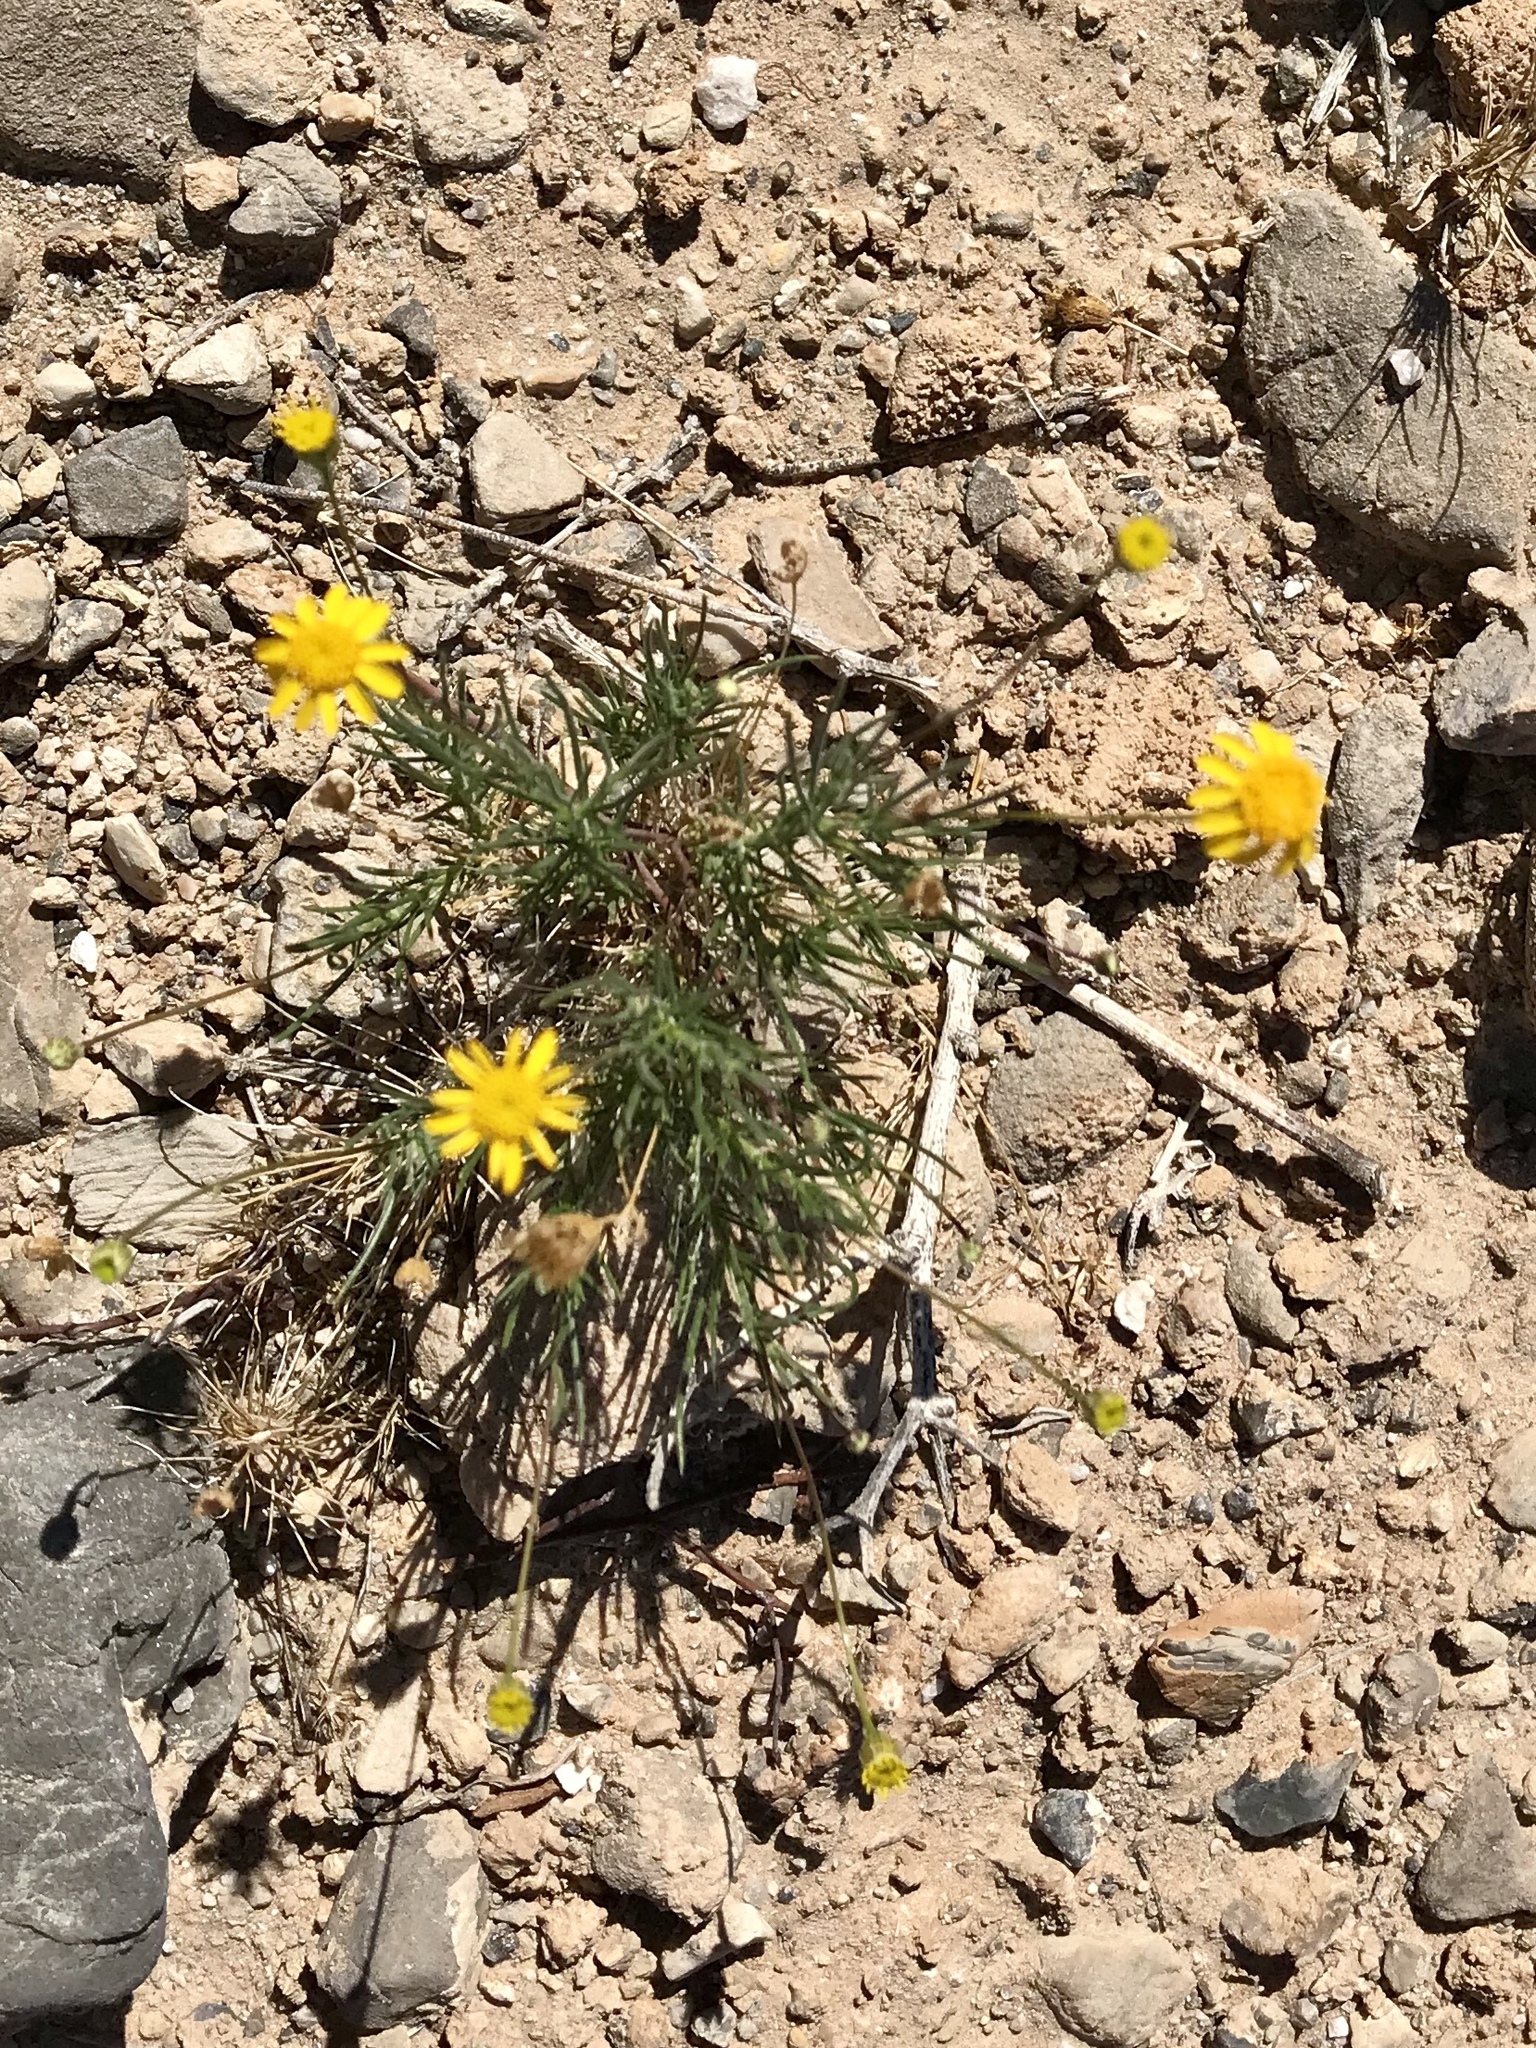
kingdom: Plantae
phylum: Tracheophyta
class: Magnoliopsida
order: Asterales
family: Asteraceae
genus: Thymophylla
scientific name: Thymophylla pentachaeta
